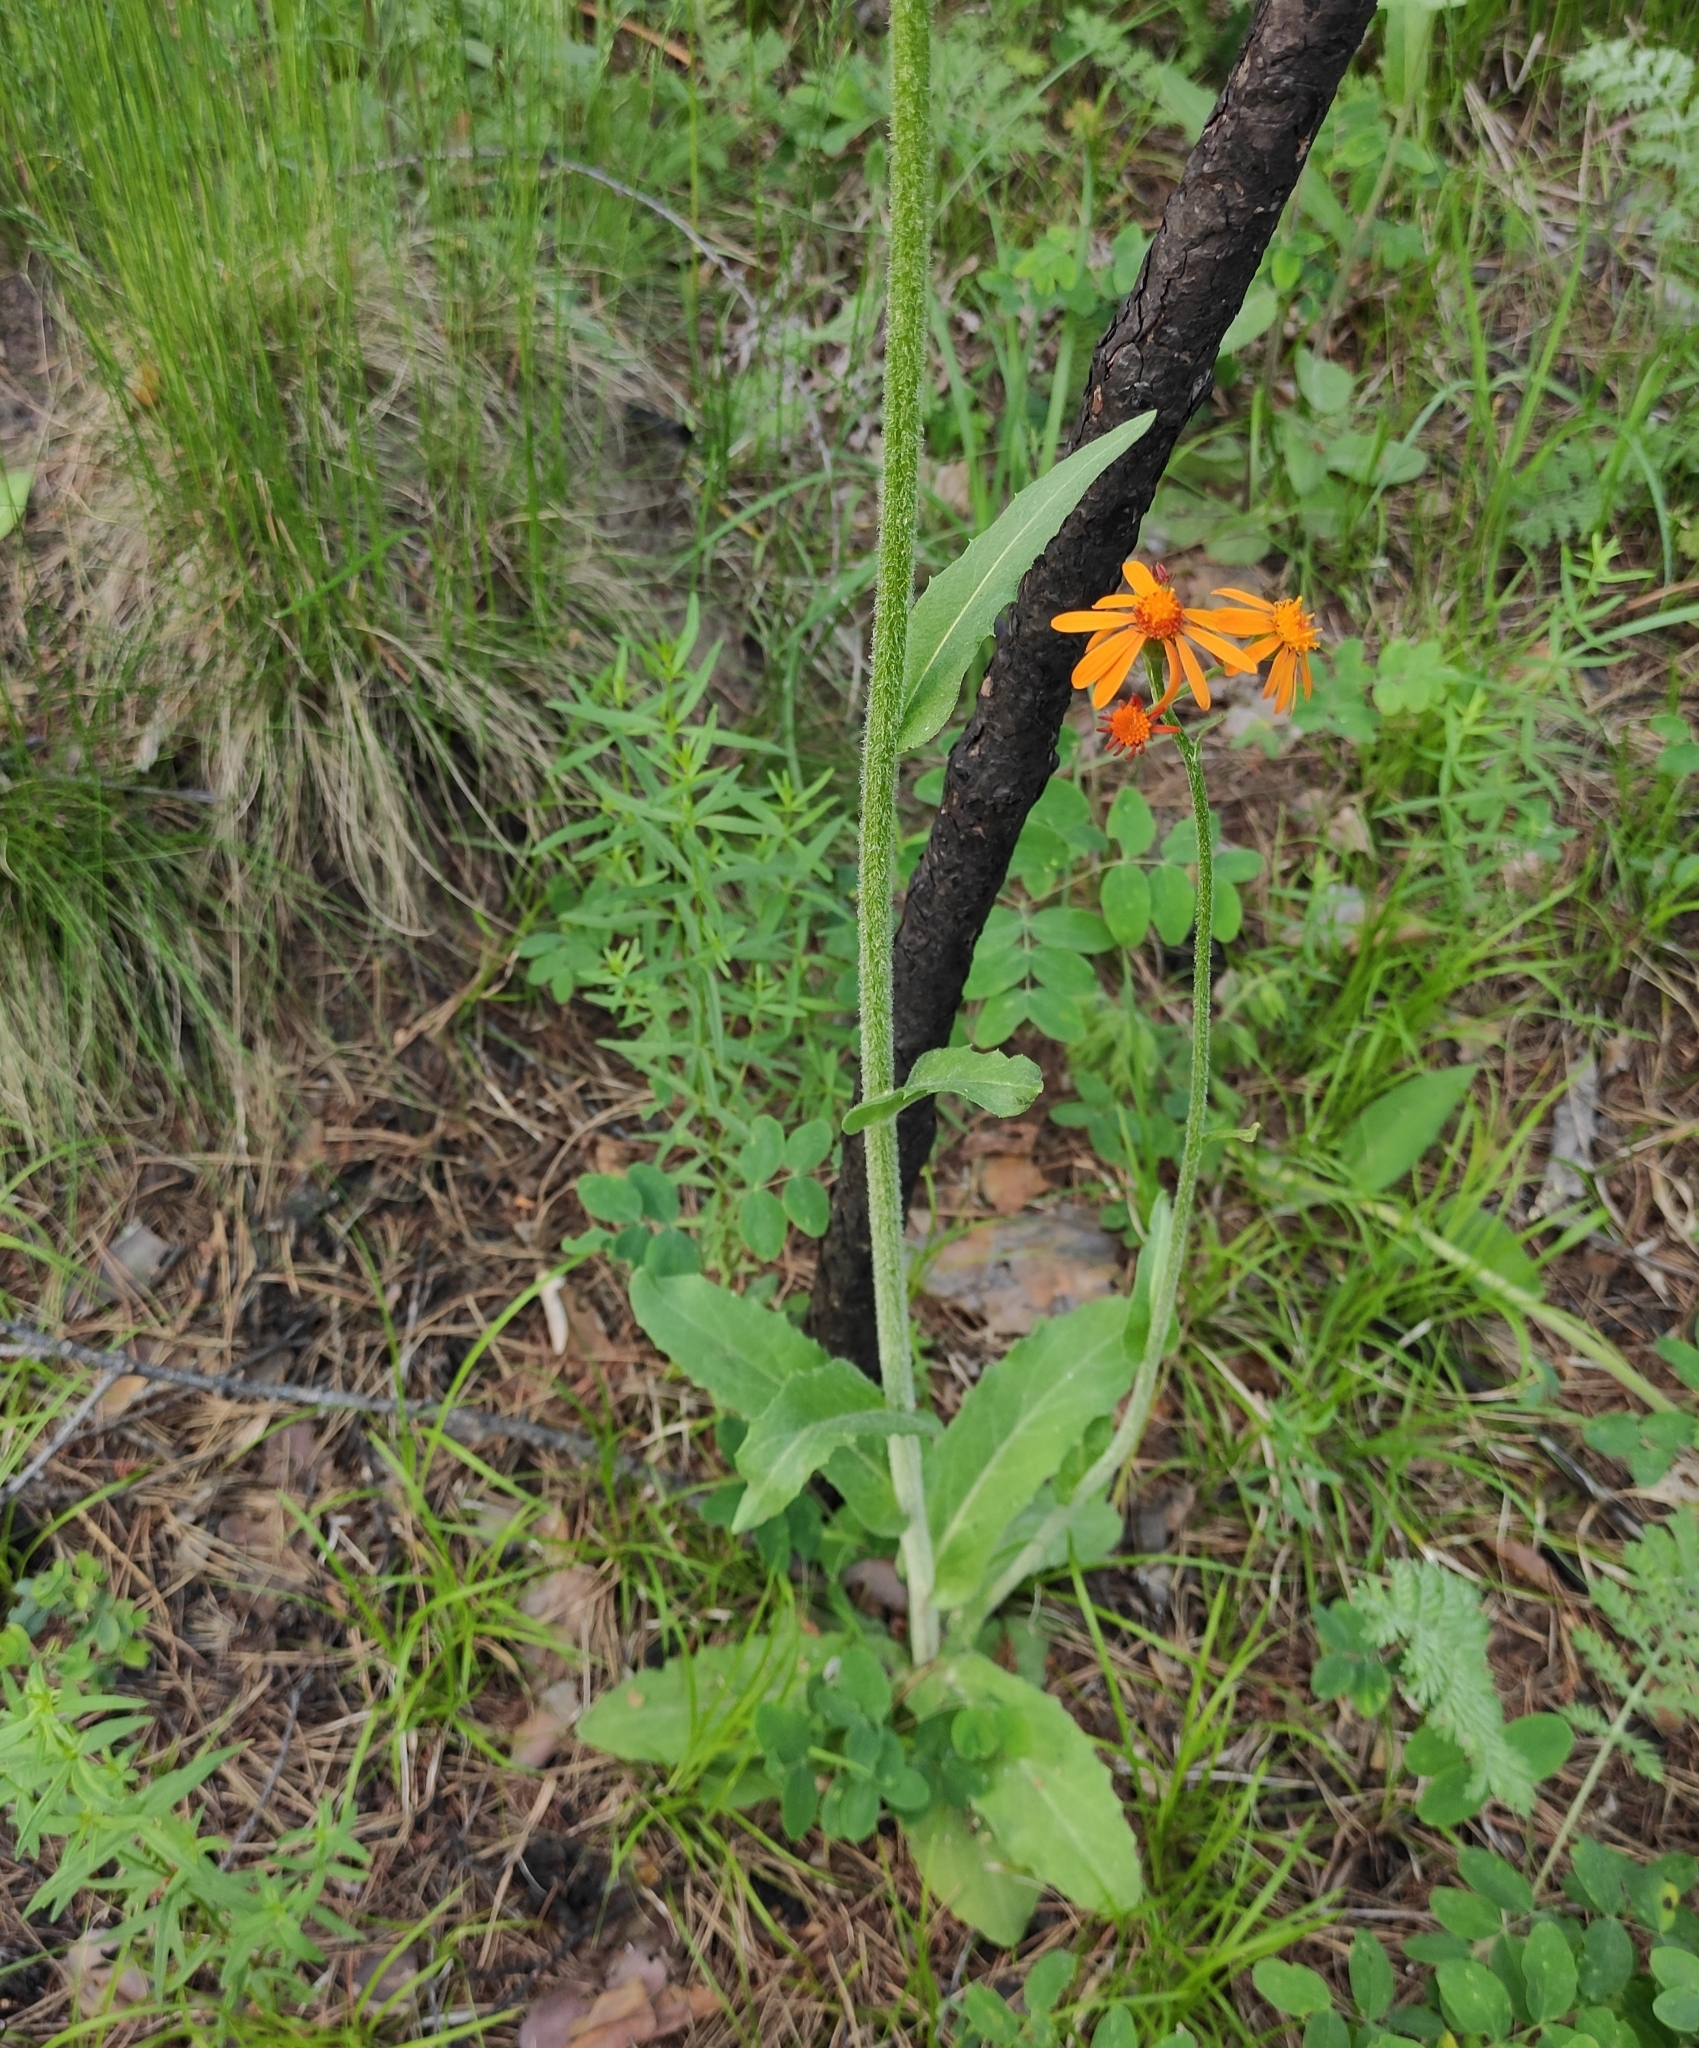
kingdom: Plantae
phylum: Tracheophyta
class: Magnoliopsida
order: Asterales
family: Asteraceae
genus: Tephroseris
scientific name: Tephroseris porphyrantha
